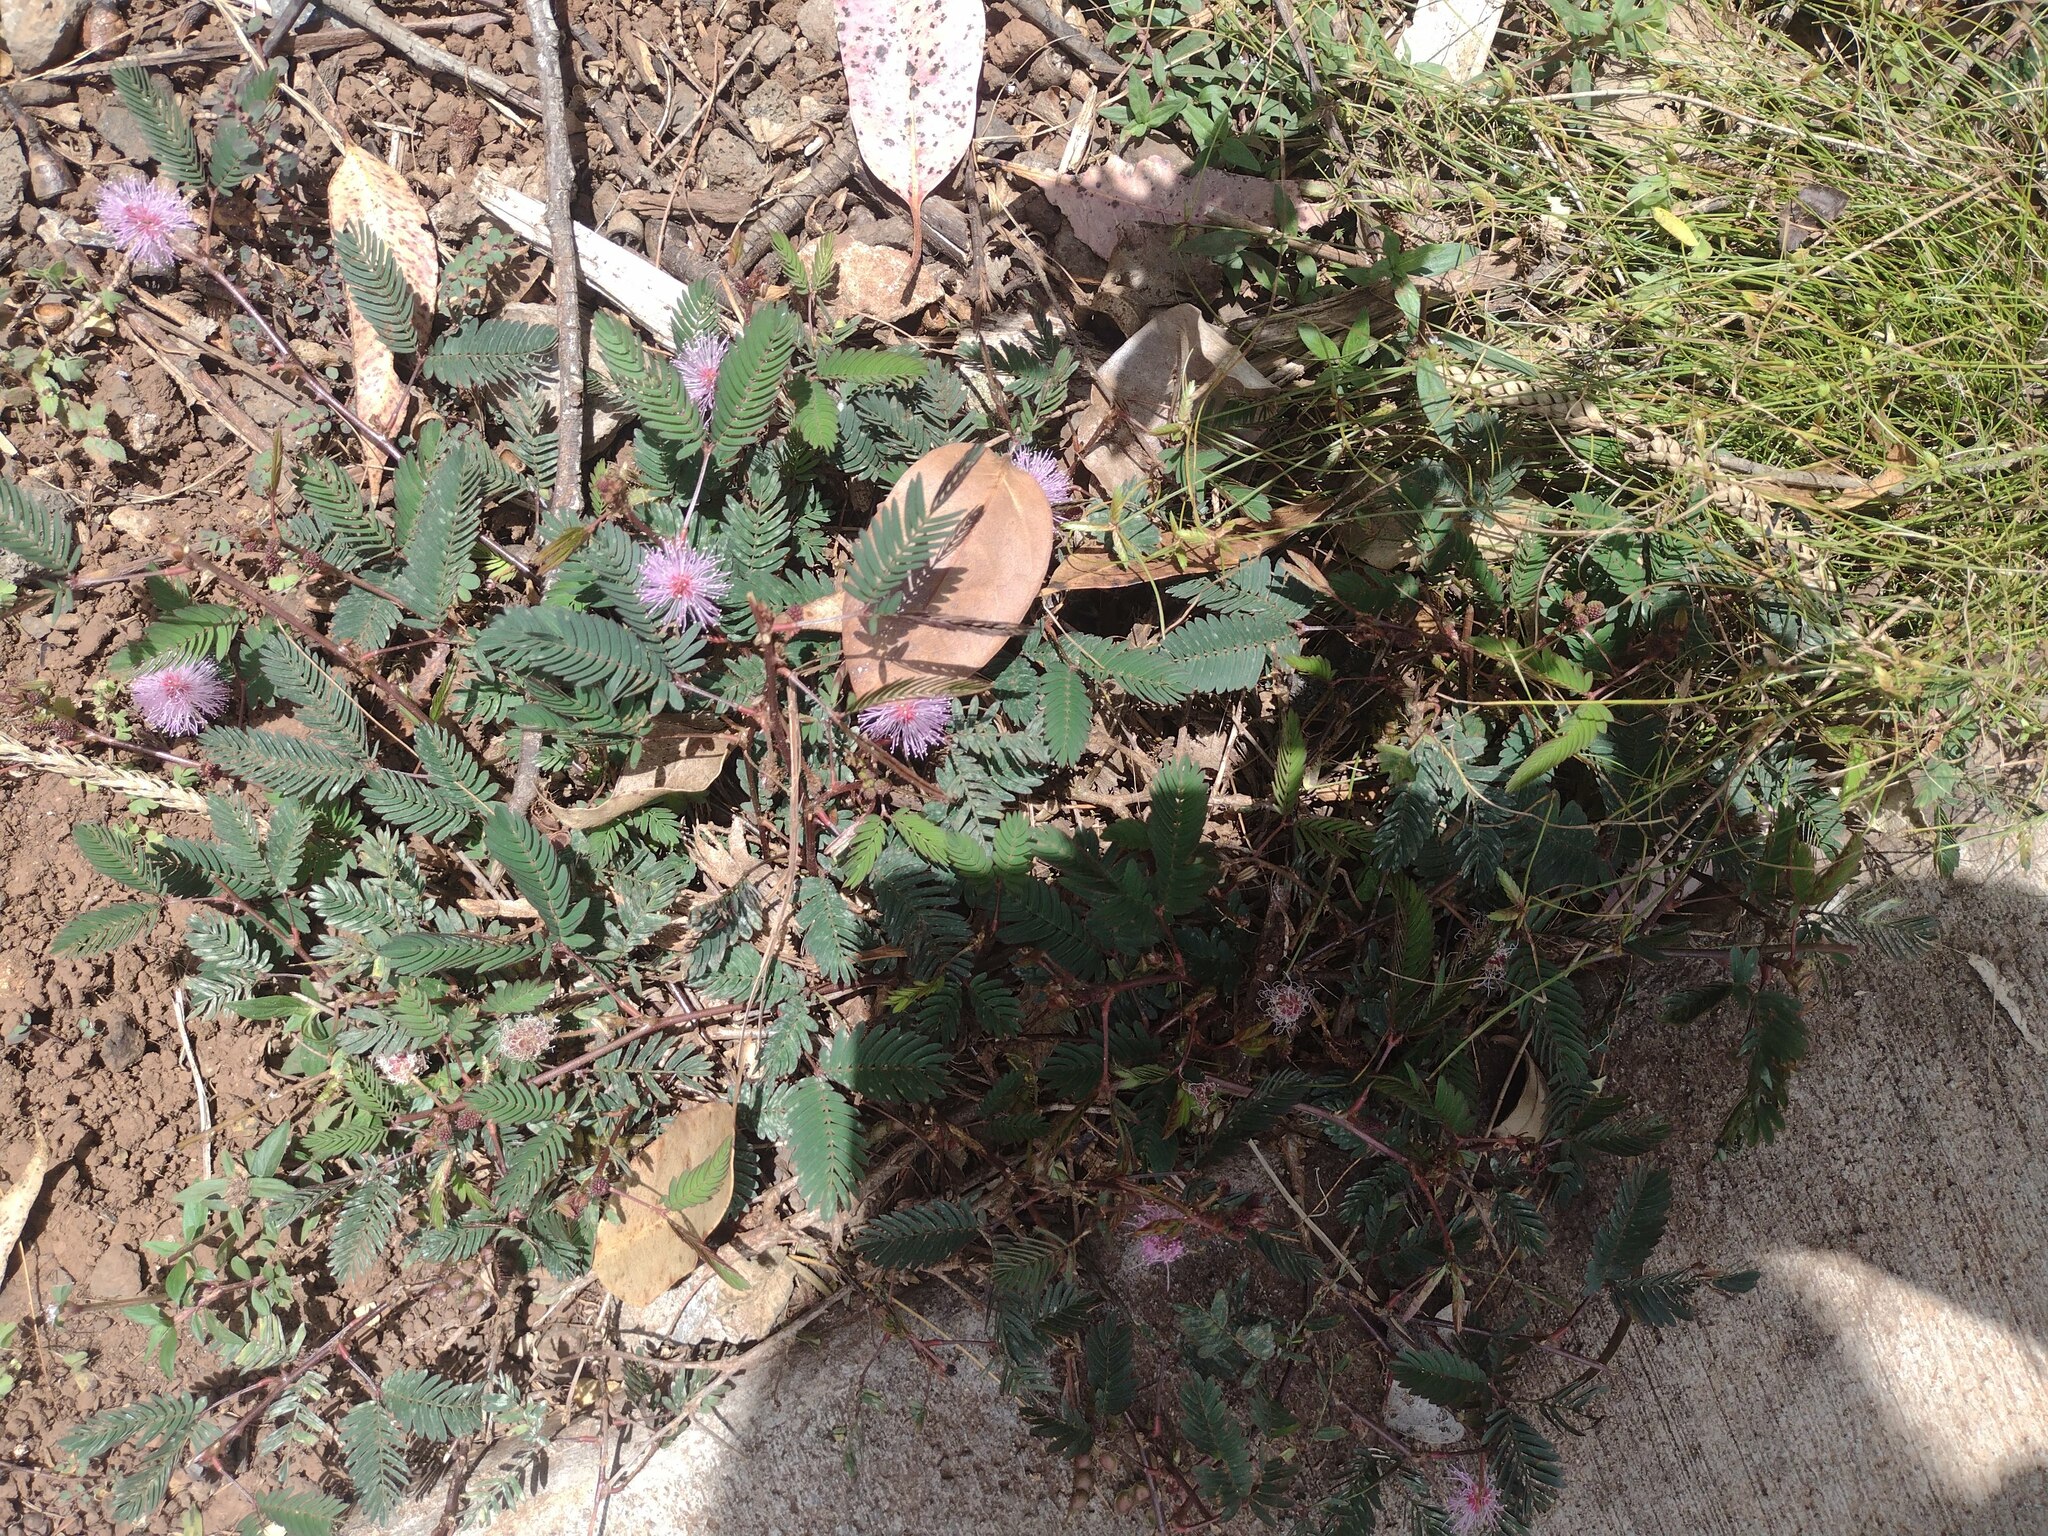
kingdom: Plantae
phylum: Tracheophyta
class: Magnoliopsida
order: Fabales
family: Fabaceae
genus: Mimosa
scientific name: Mimosa pudica
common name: Sensitive plant
